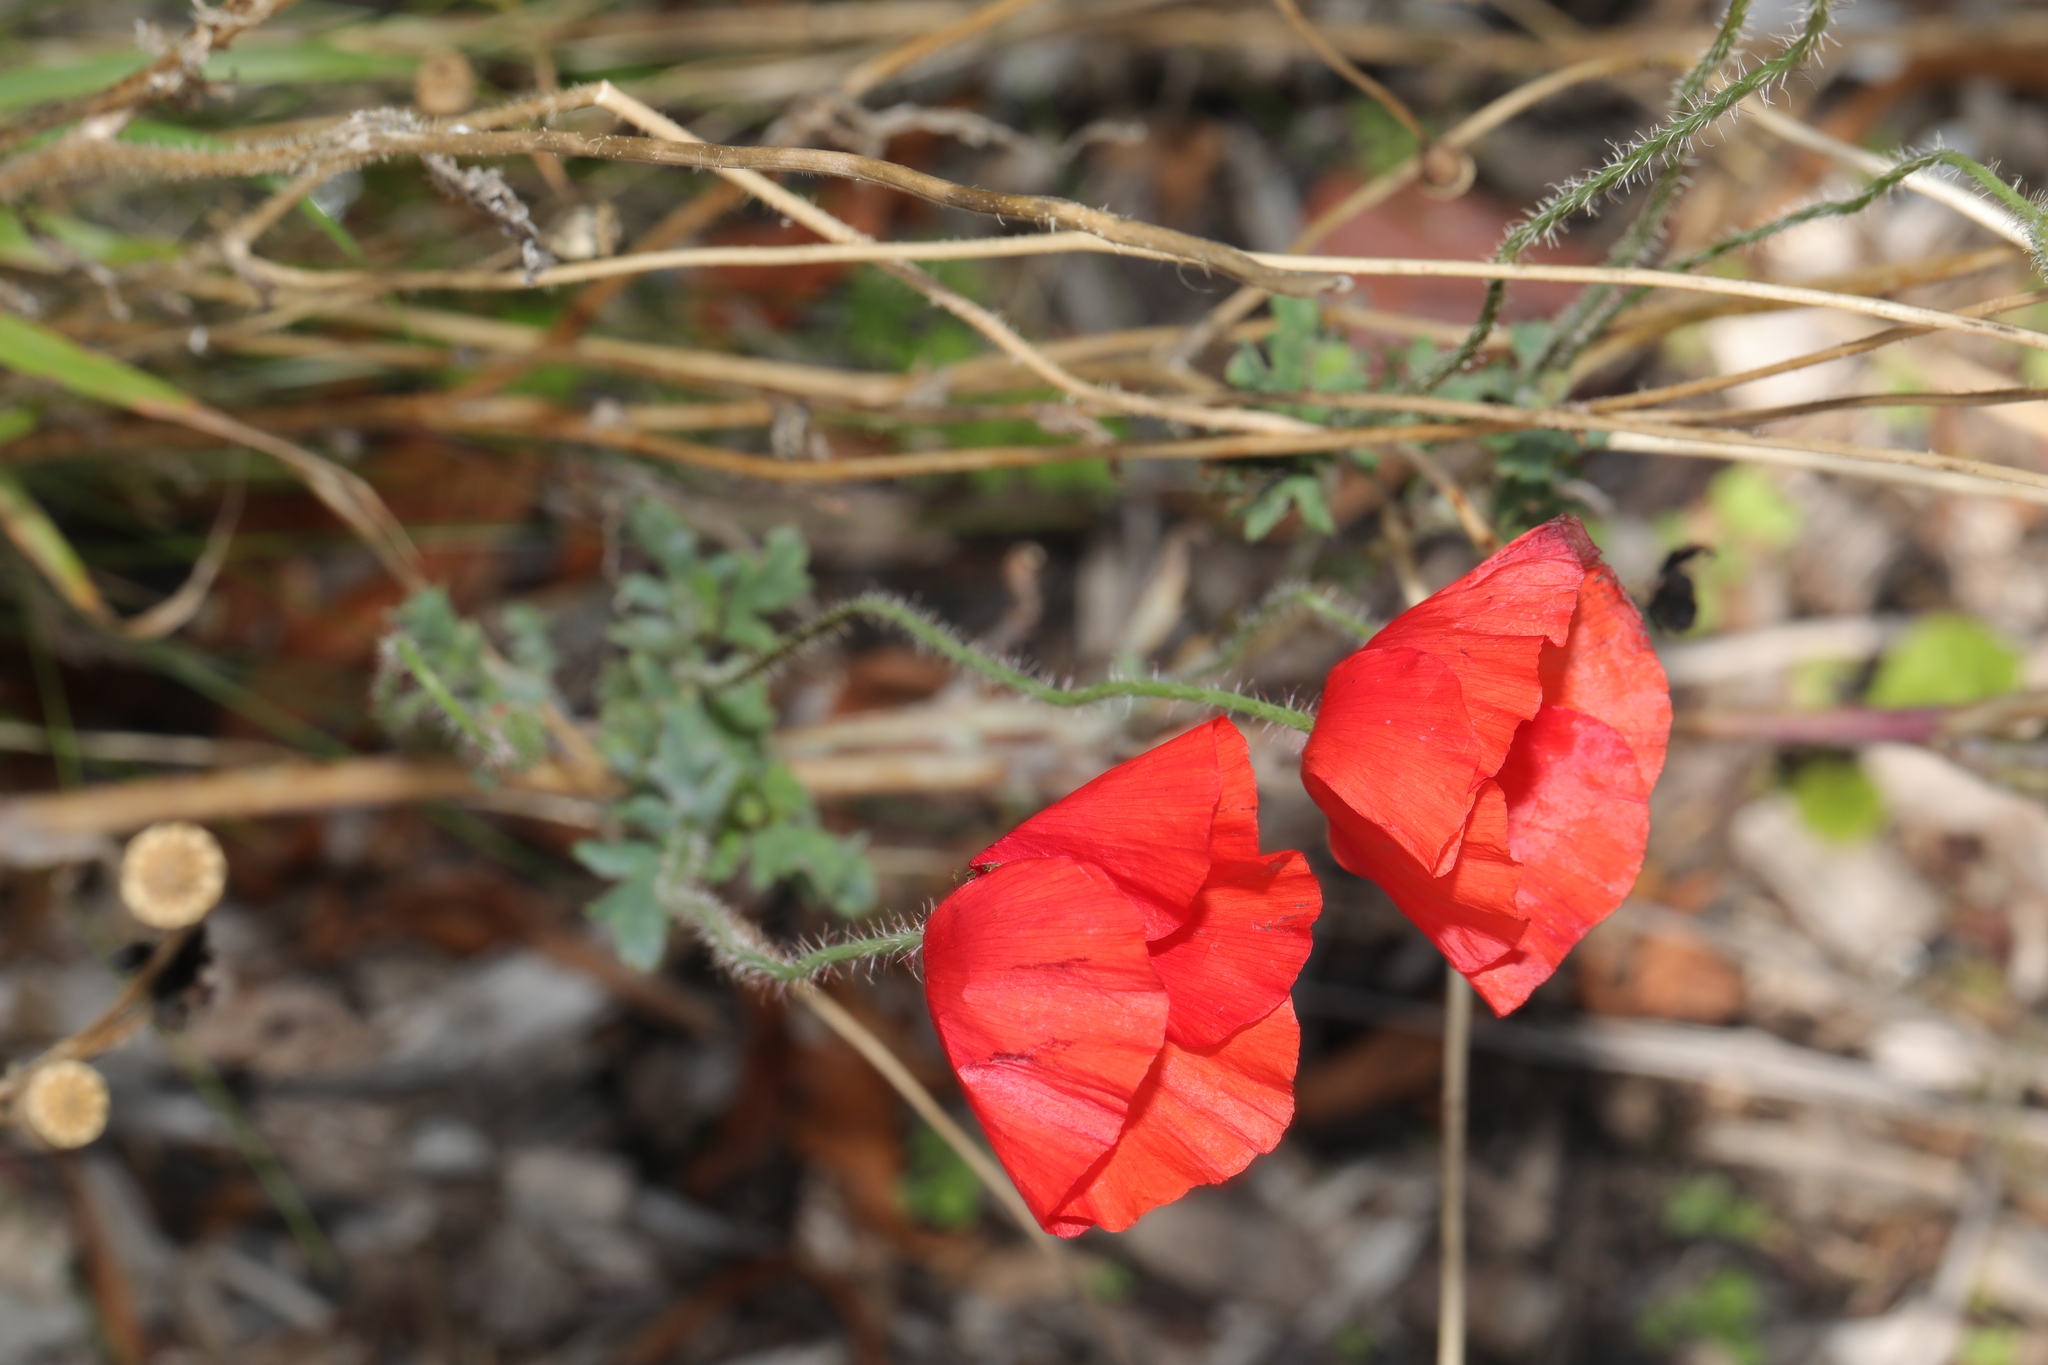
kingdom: Plantae
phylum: Tracheophyta
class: Magnoliopsida
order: Ranunculales
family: Papaveraceae
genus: Papaver
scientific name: Papaver rhoeas
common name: Corn poppy
